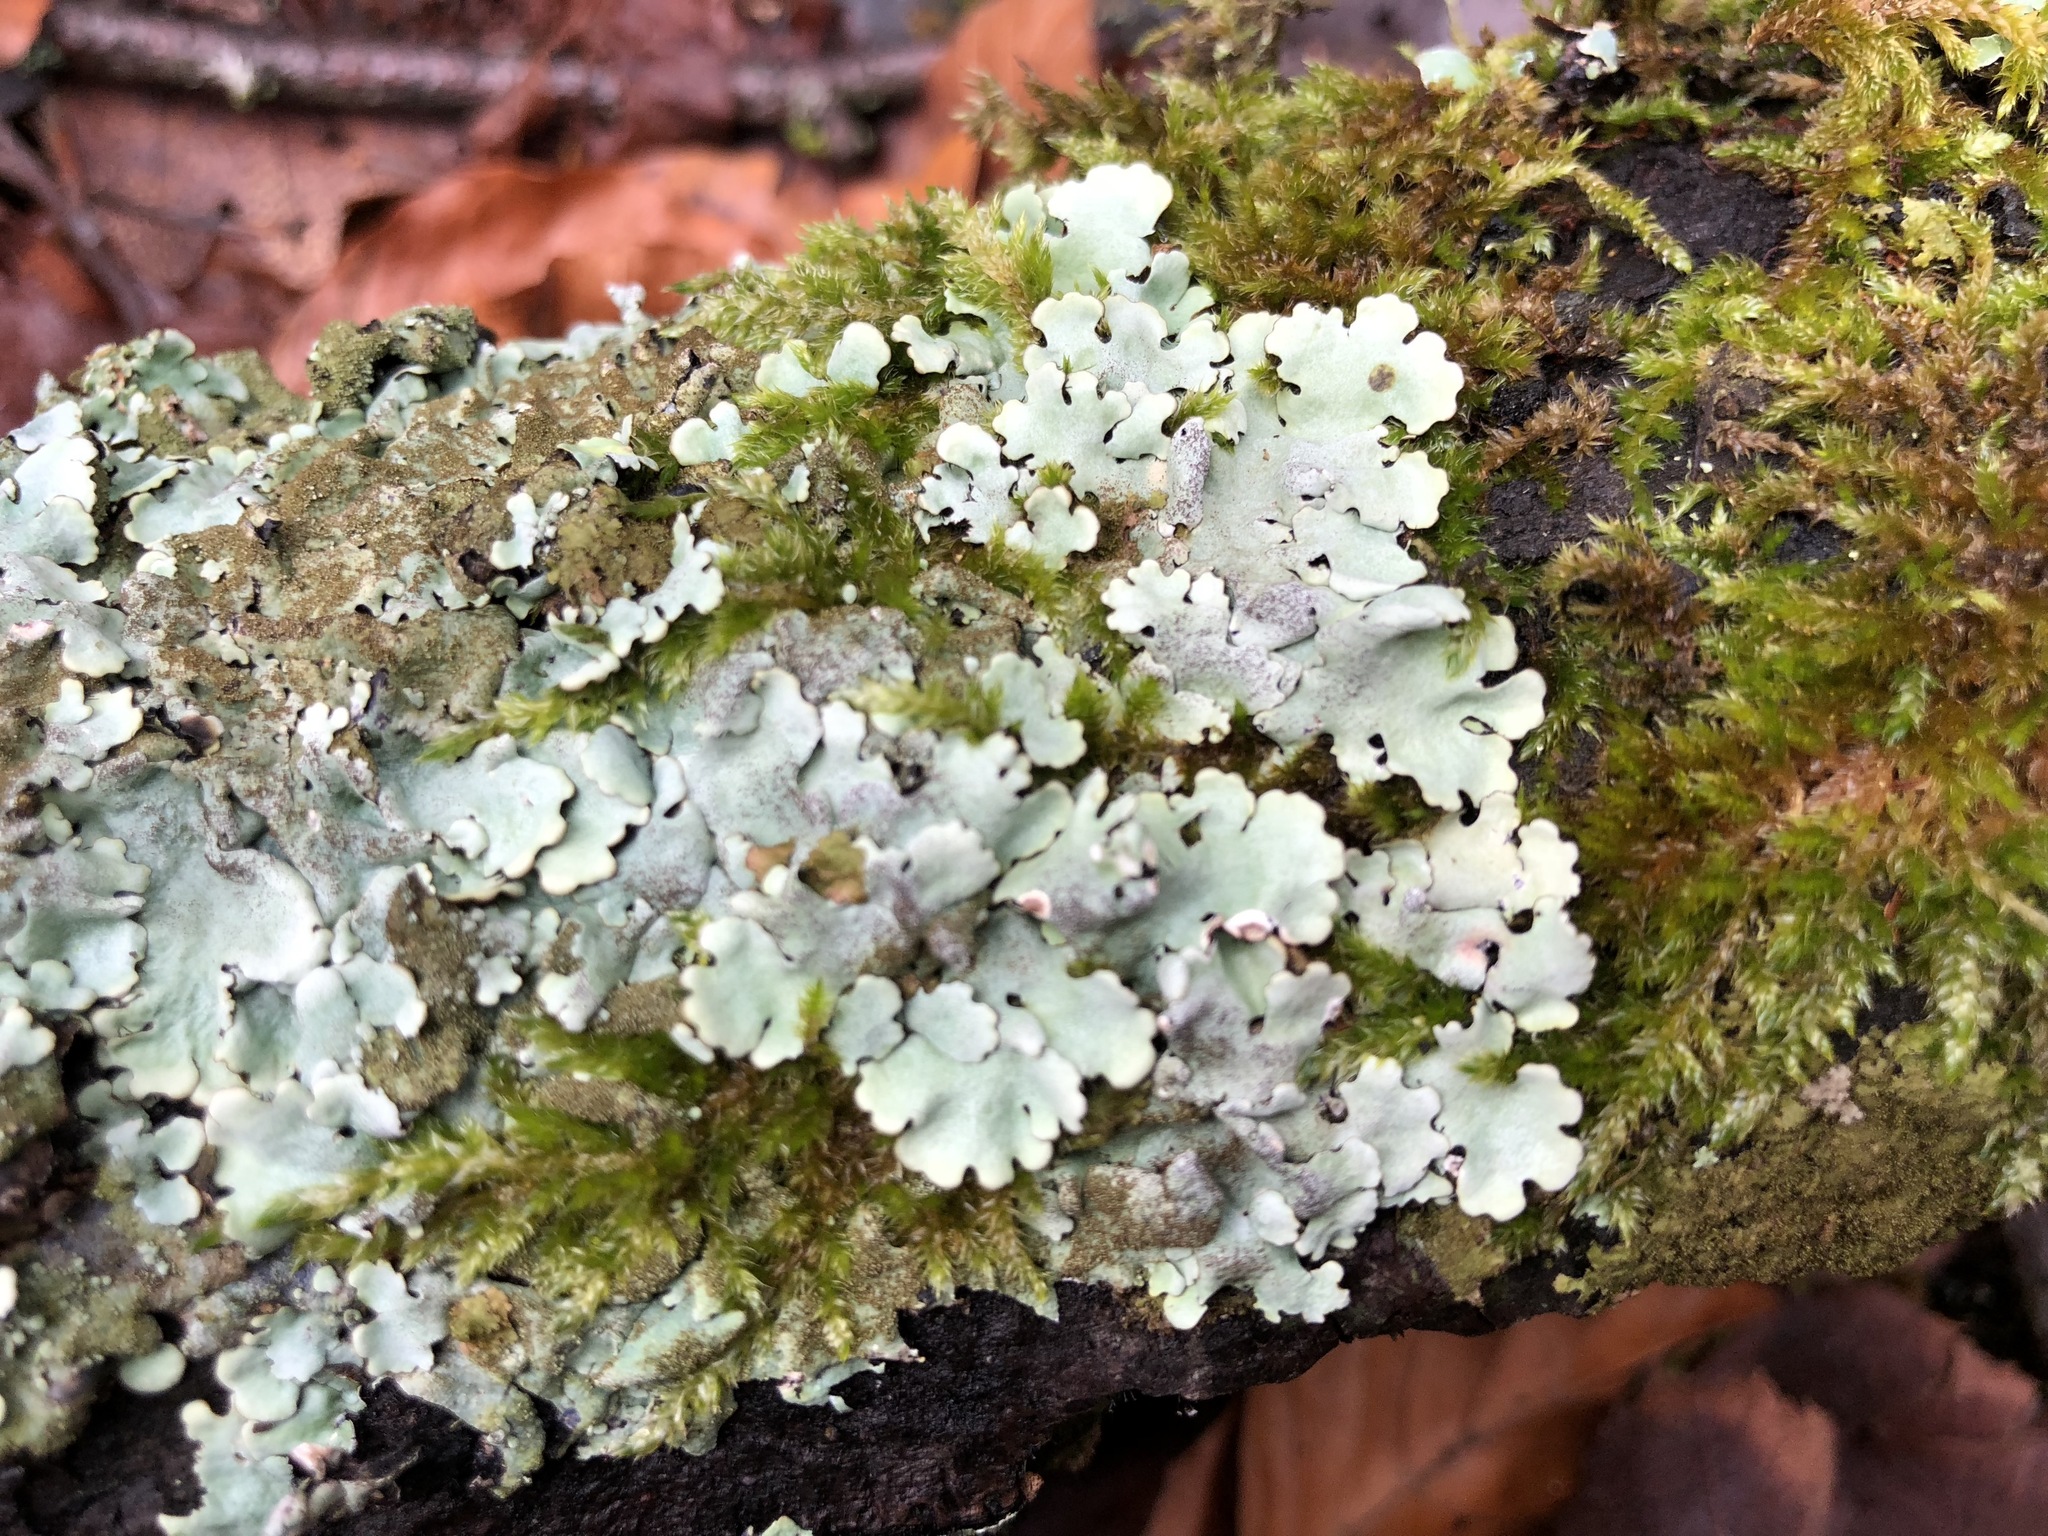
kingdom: Fungi
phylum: Ascomycota
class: Lecanoromycetes
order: Lecanorales
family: Parmeliaceae
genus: Parmelina
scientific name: Parmelina tiliacea
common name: Linden shield lichen
